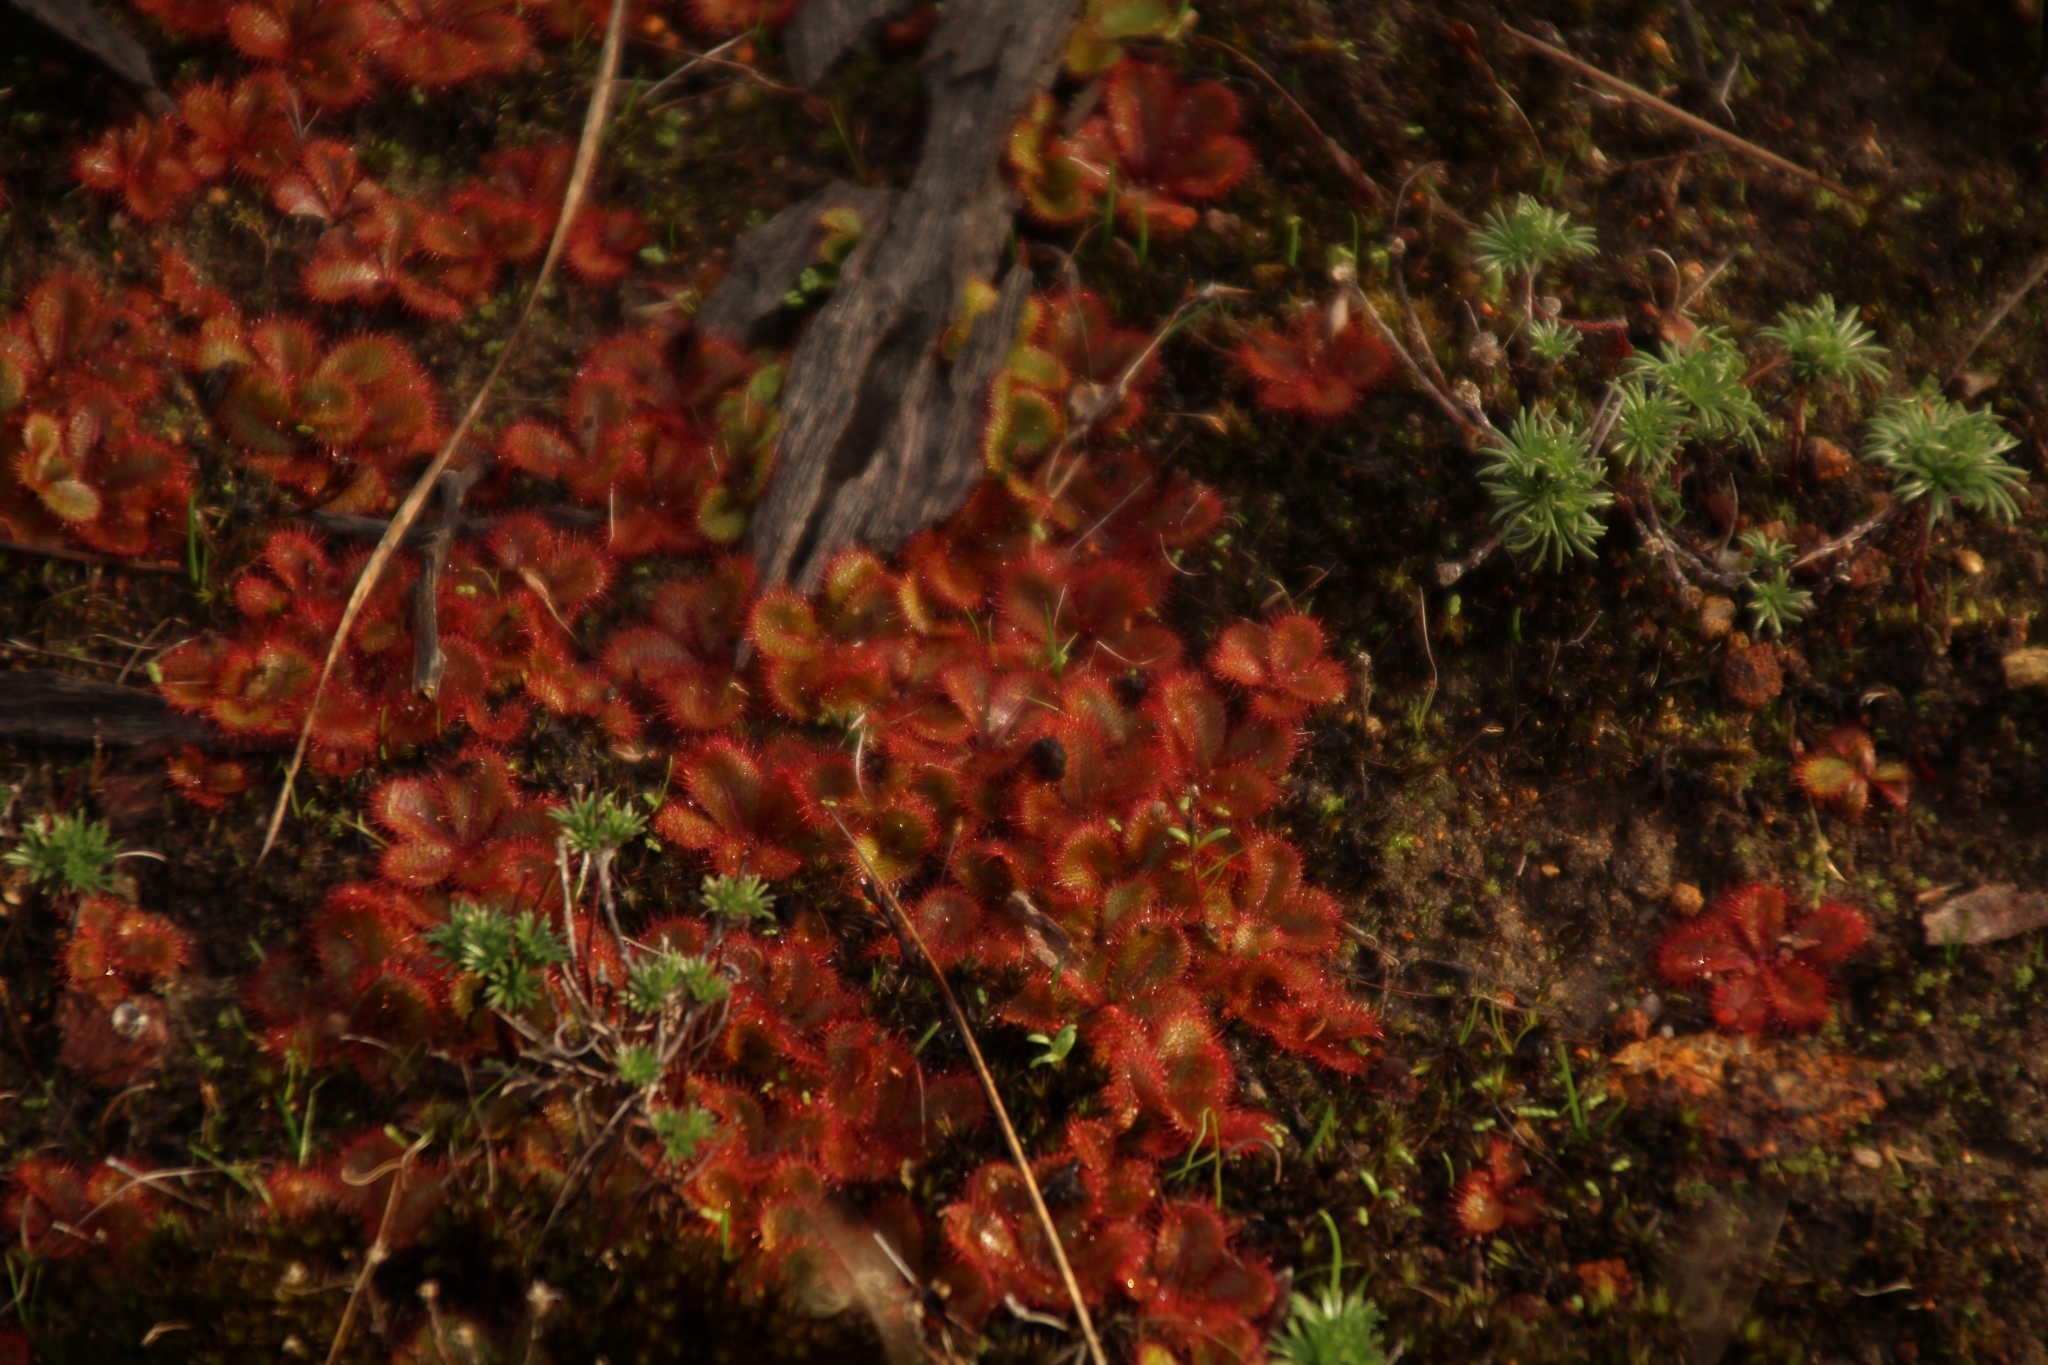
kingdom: Plantae
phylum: Tracheophyta
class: Magnoliopsida
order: Caryophyllales
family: Droseraceae
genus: Drosera
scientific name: Drosera tubaestylis
